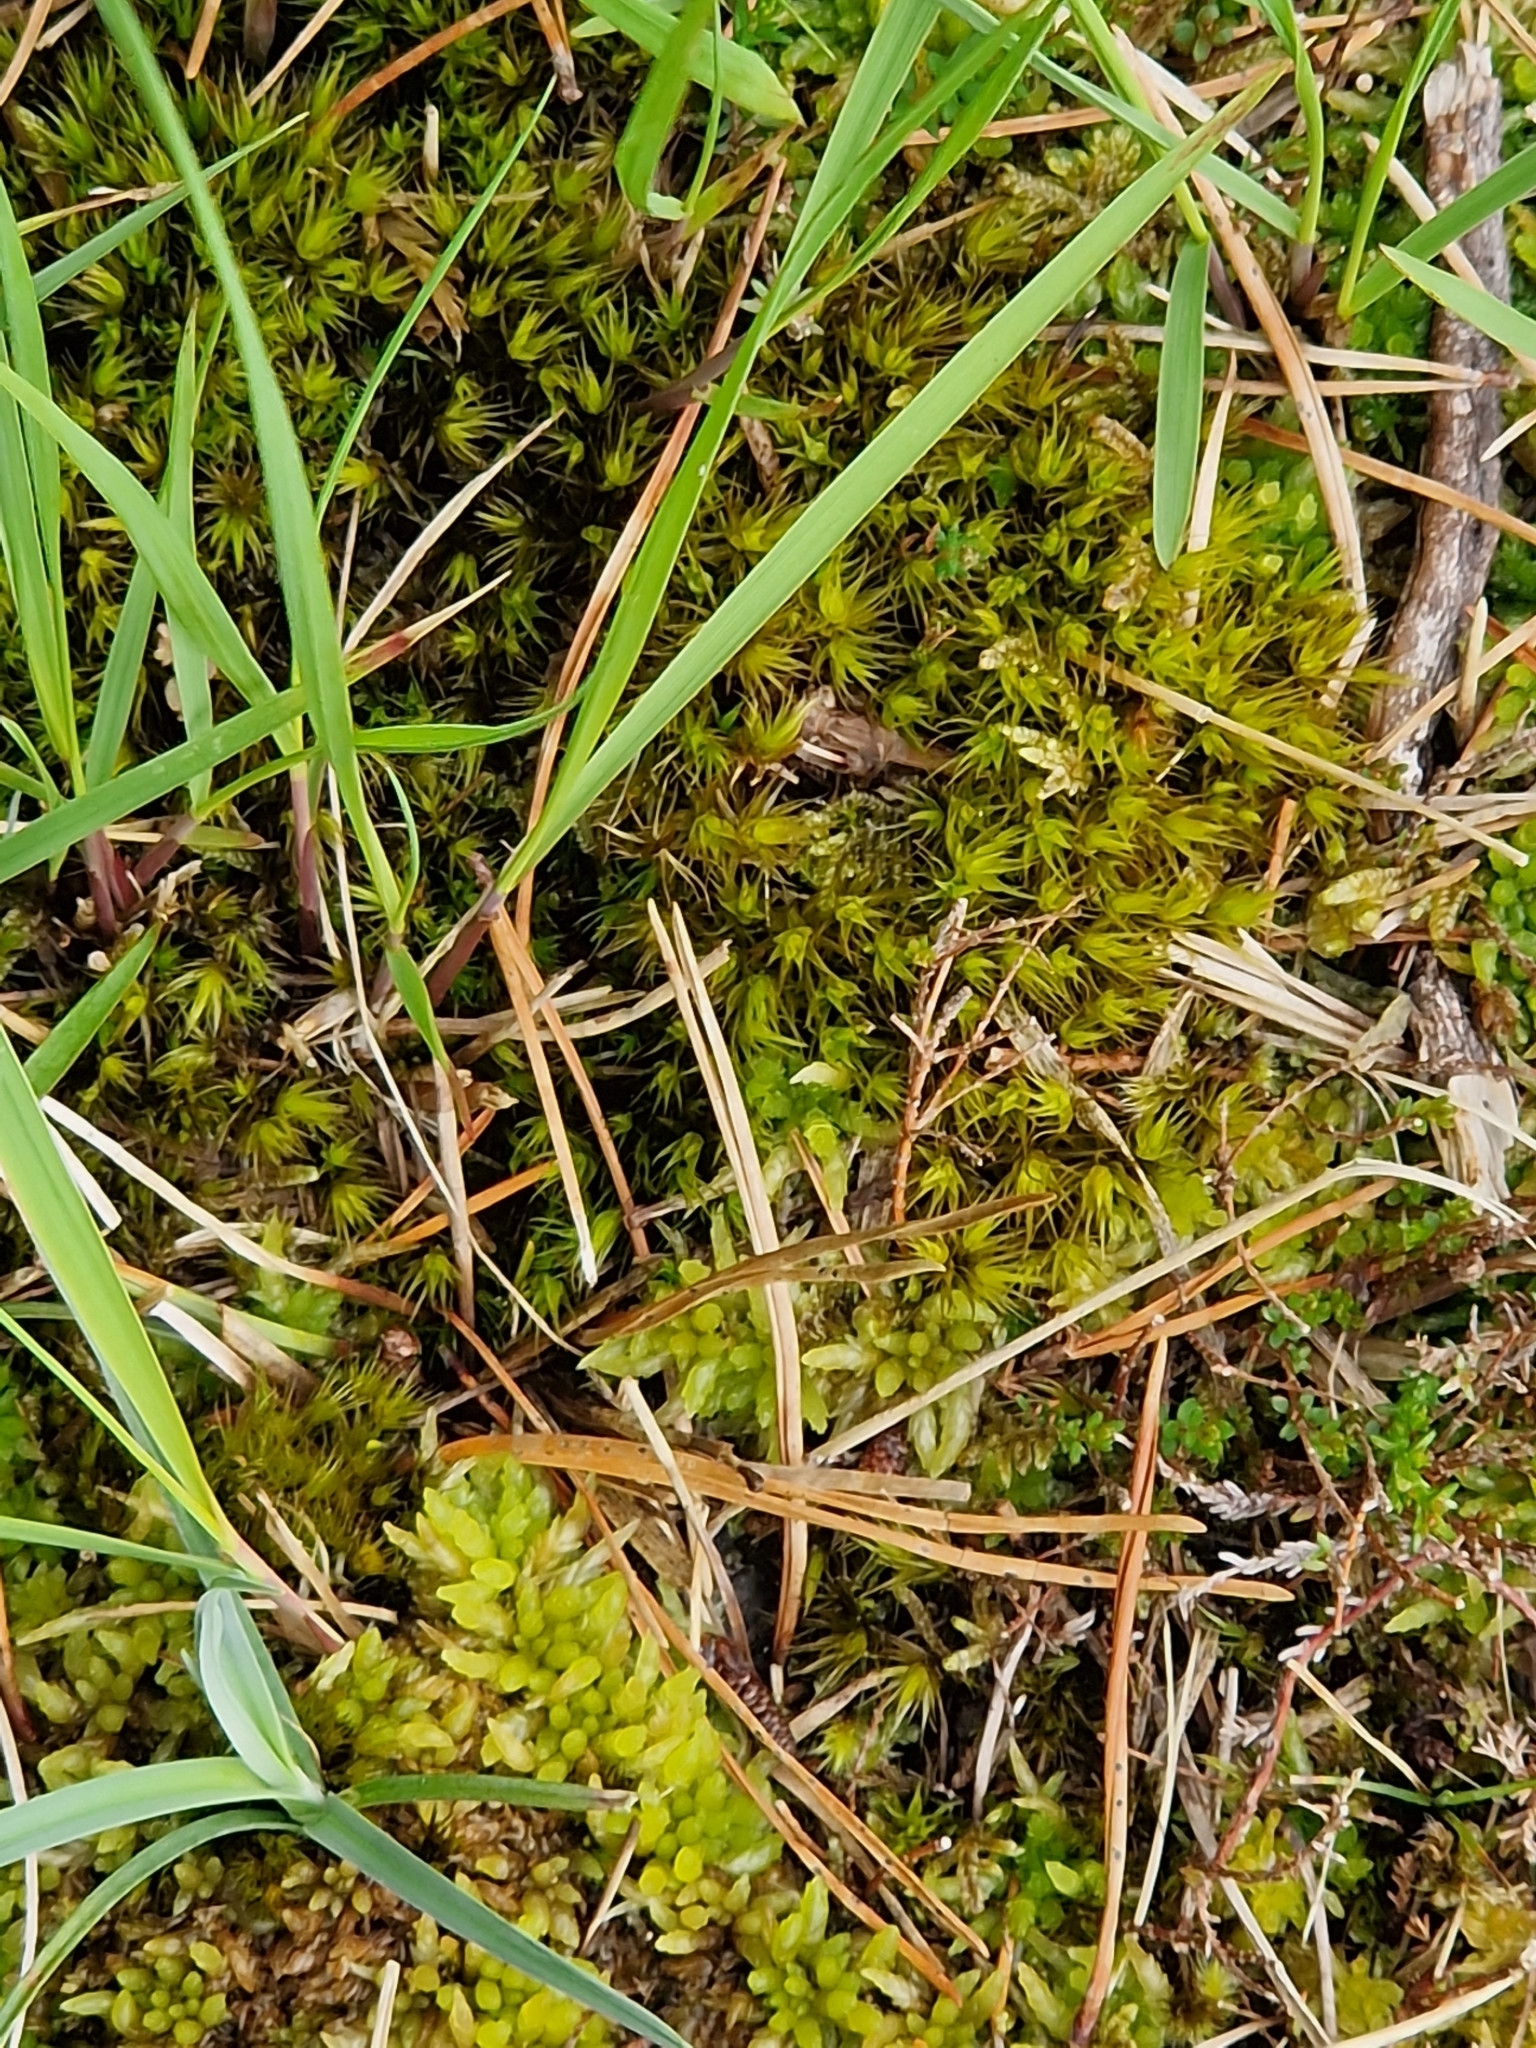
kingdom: Plantae
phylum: Bryophyta
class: Bryopsida
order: Dicranales
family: Dicranaceae
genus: Dicranum
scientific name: Dicranum scoparium
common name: Broom fork-moss
